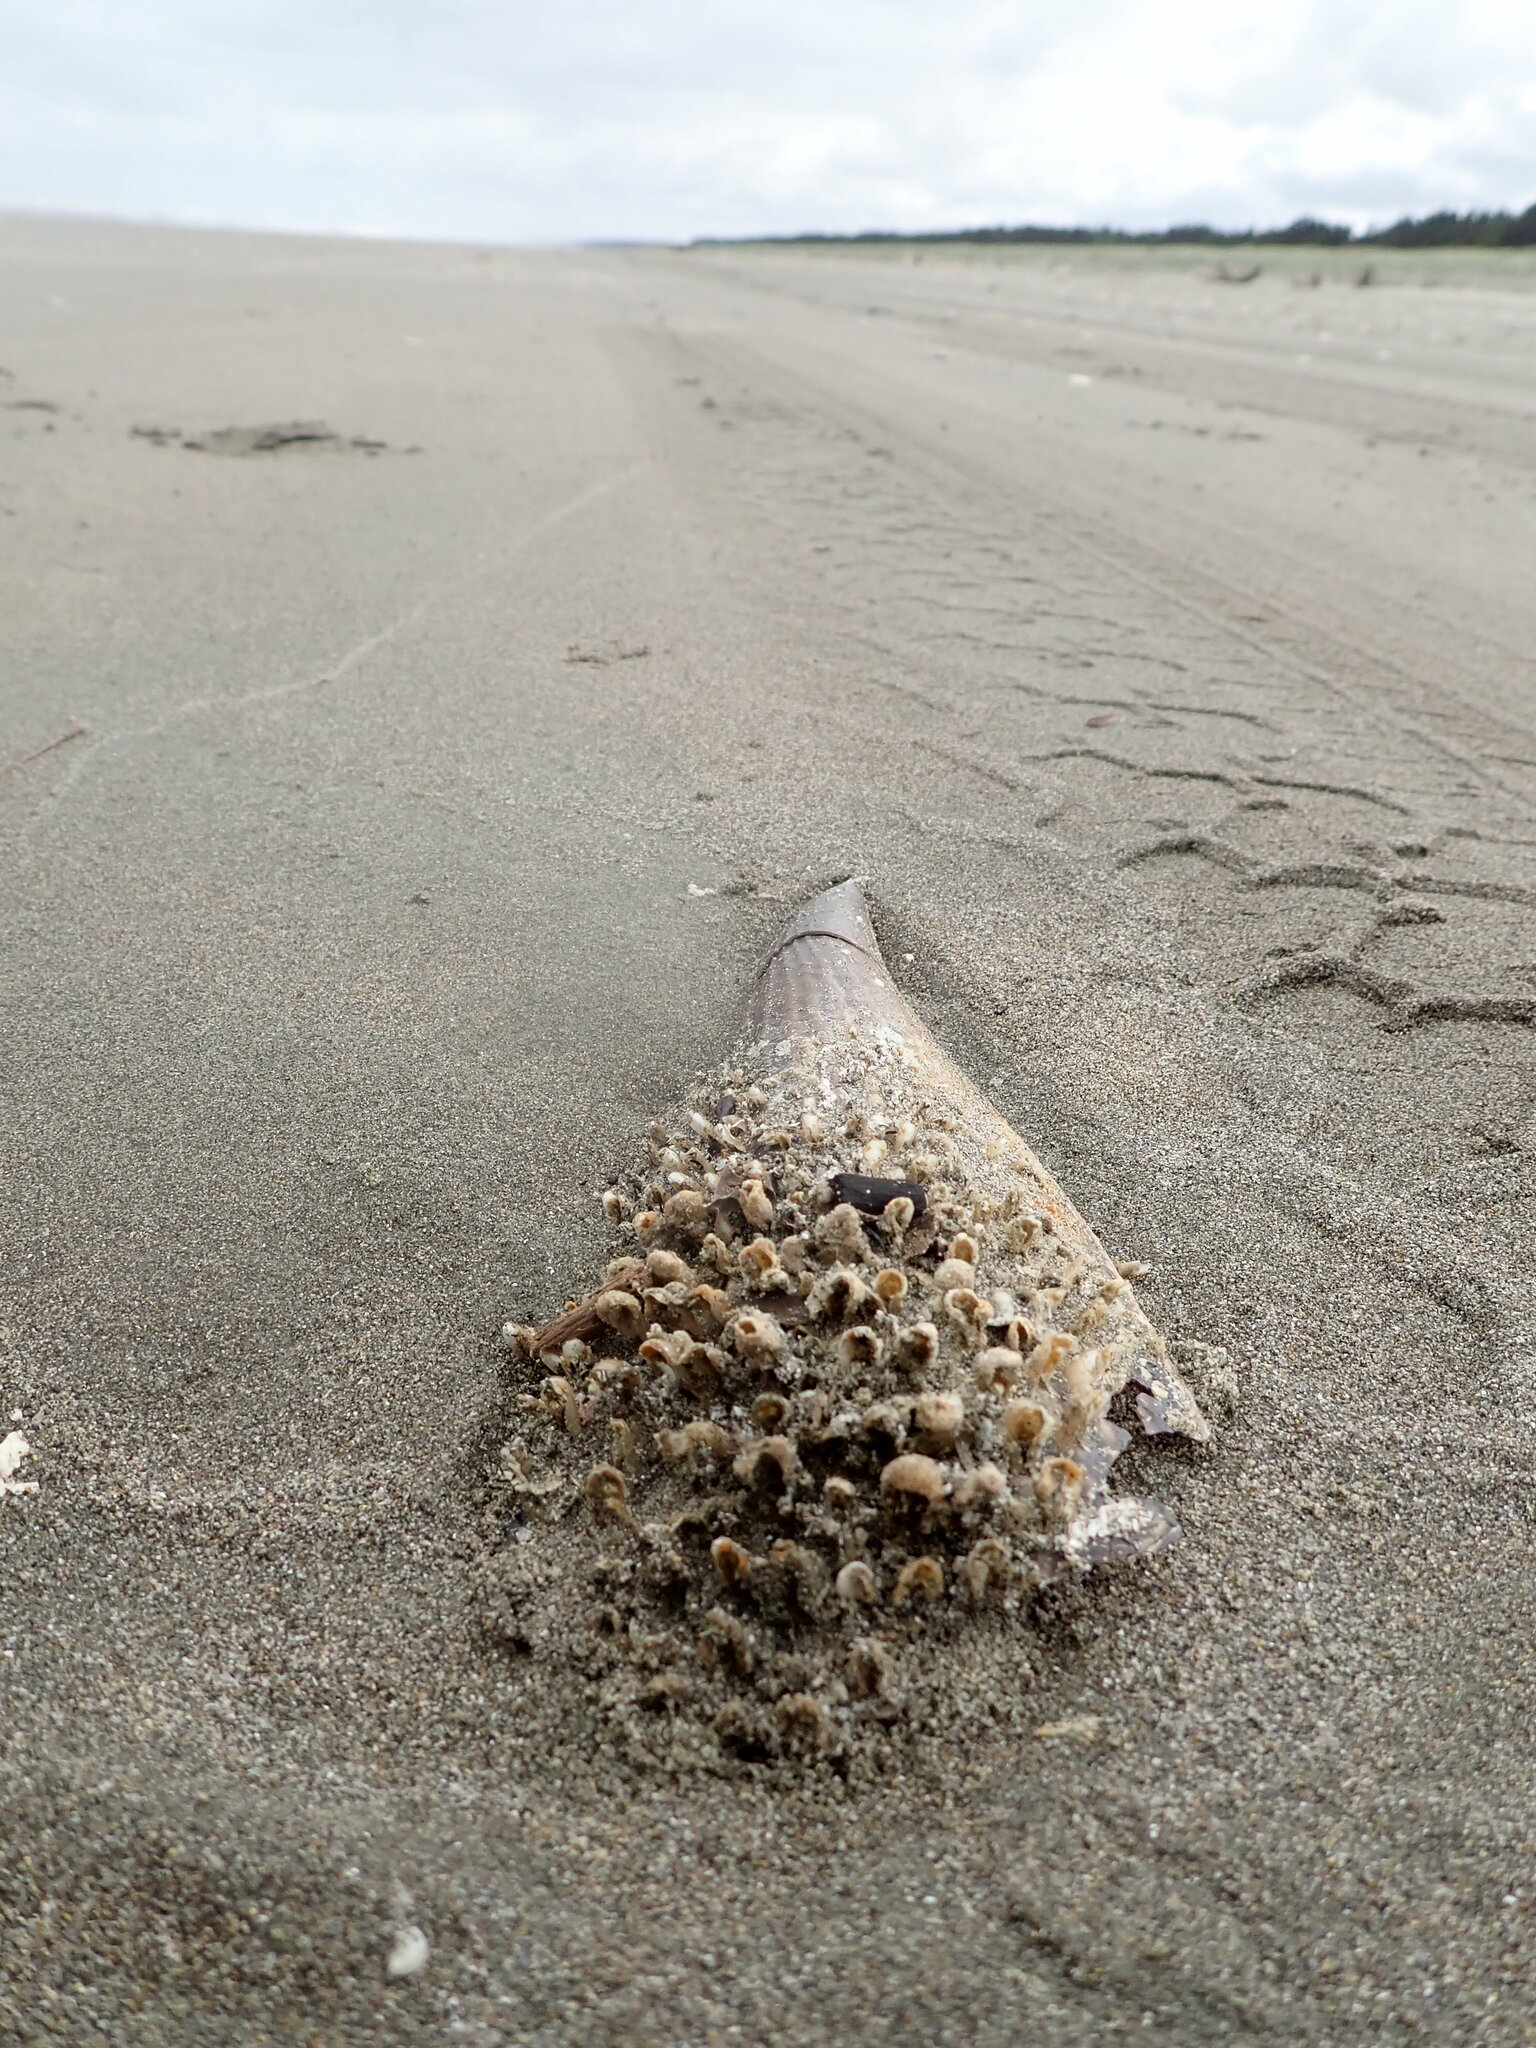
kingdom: Animalia
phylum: Mollusca
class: Bivalvia
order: Ostreida
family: Pinnidae
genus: Atrina
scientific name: Atrina zelandica
